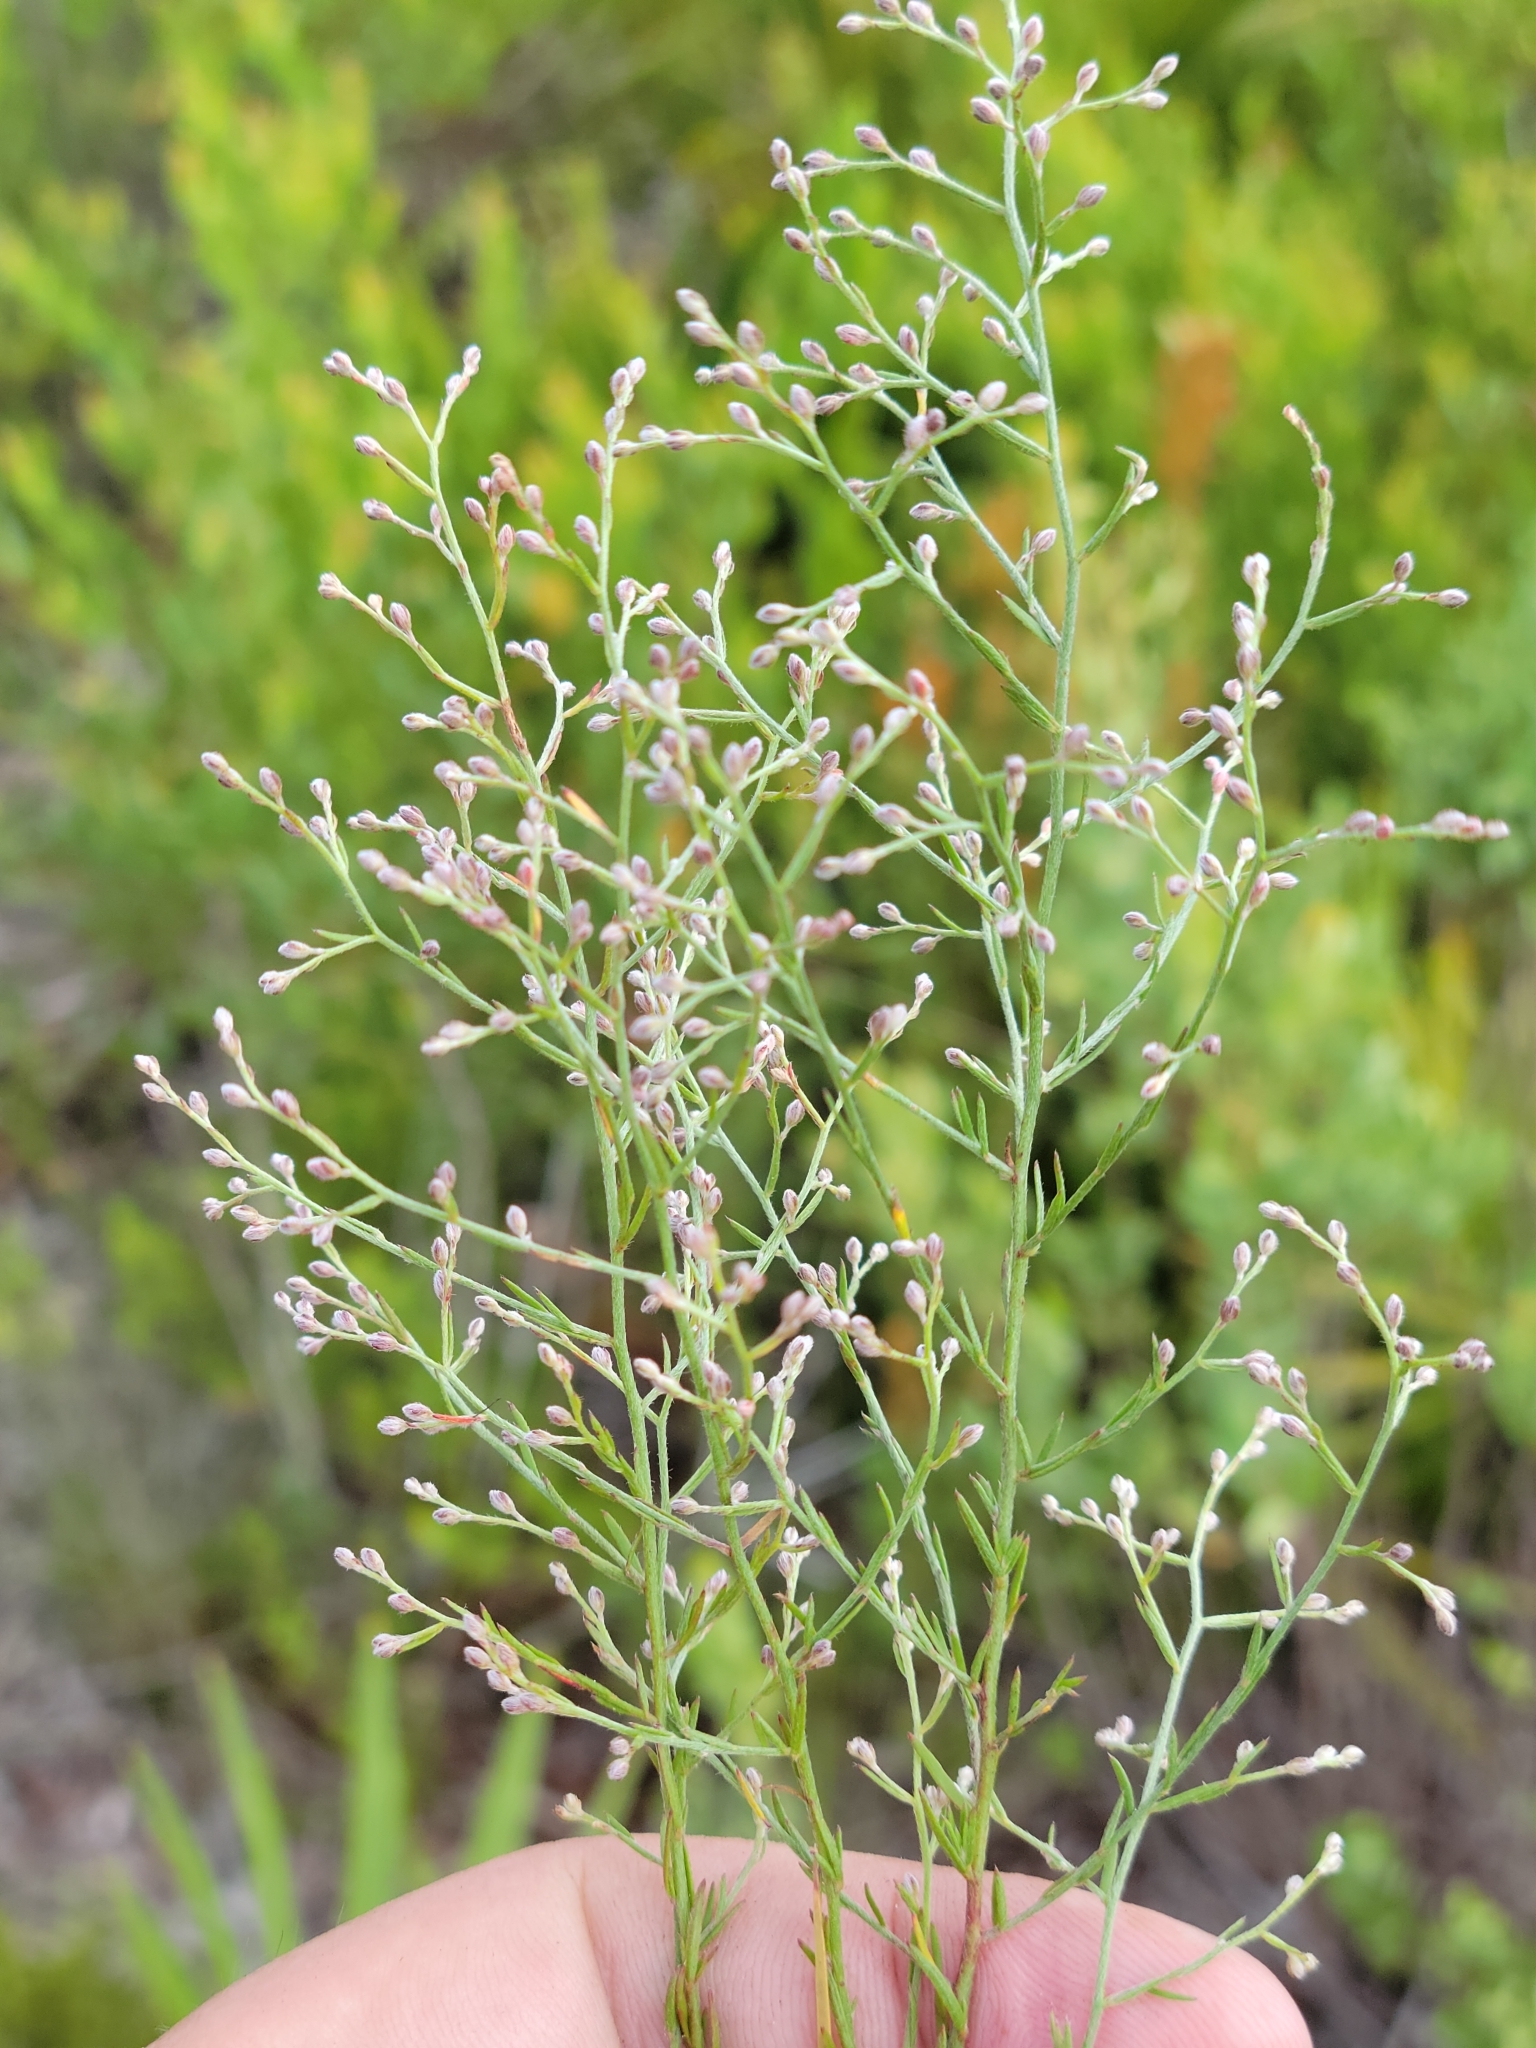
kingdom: Plantae
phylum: Tracheophyta
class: Magnoliopsida
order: Malvales
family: Cistaceae
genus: Lechea
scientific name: Lechea torreyi
